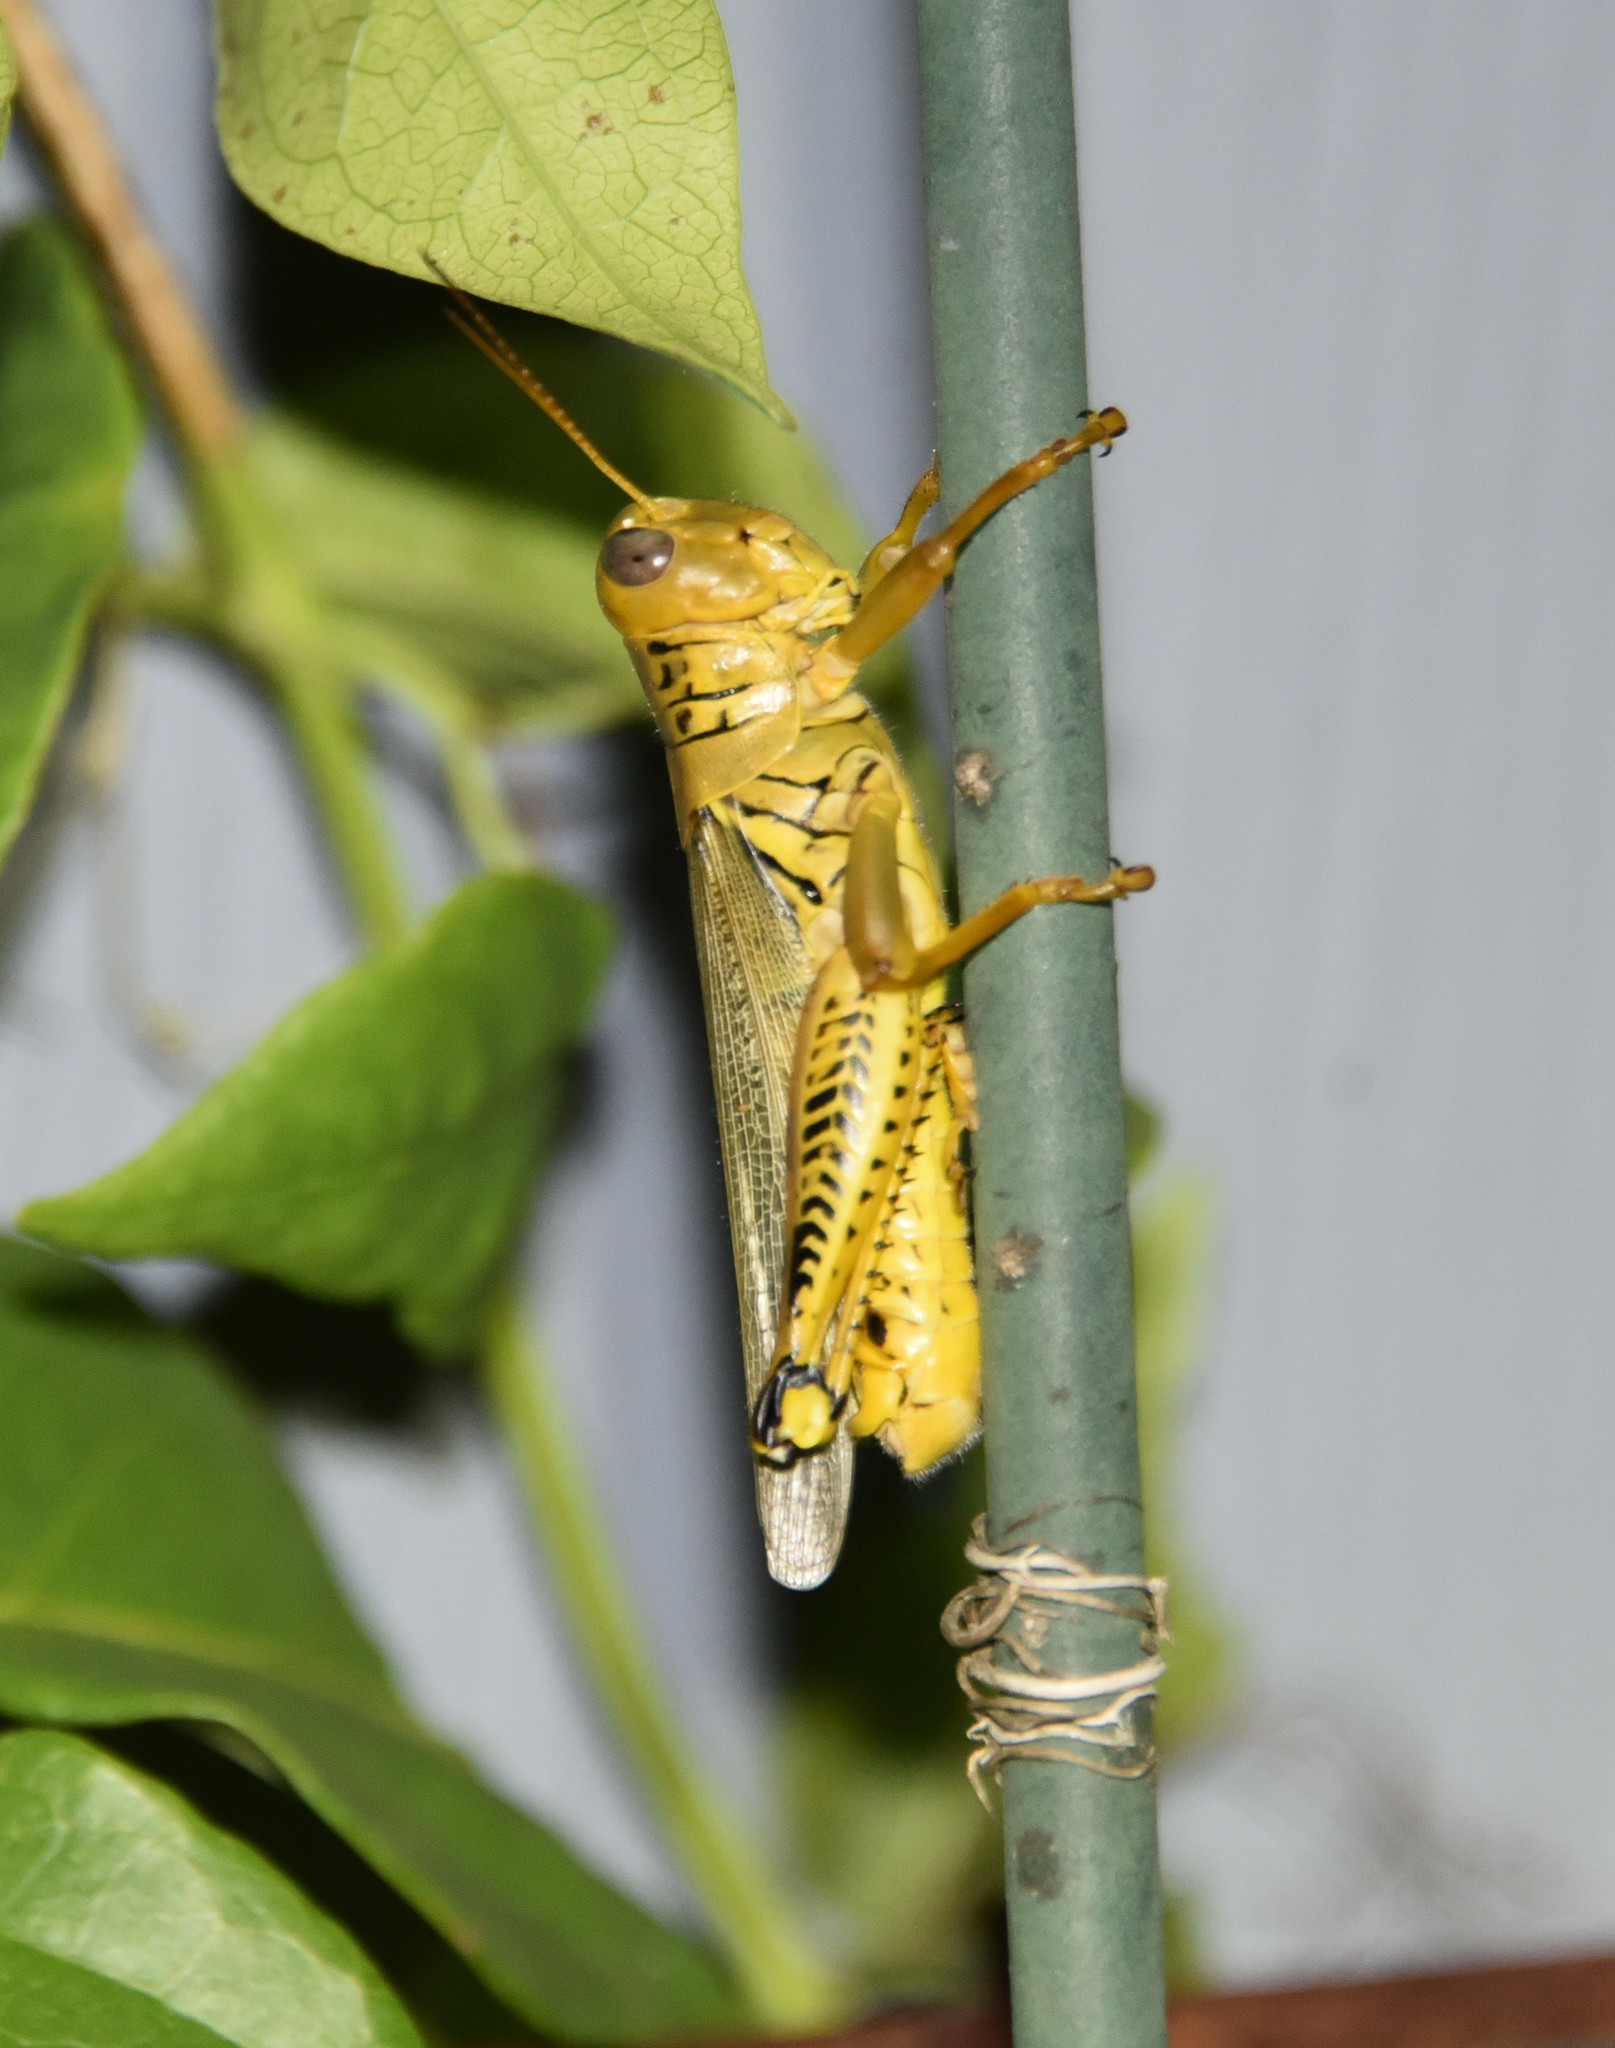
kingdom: Animalia
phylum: Arthropoda
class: Insecta
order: Orthoptera
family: Acrididae
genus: Melanoplus
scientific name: Melanoplus differentialis
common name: Differential grasshopper
